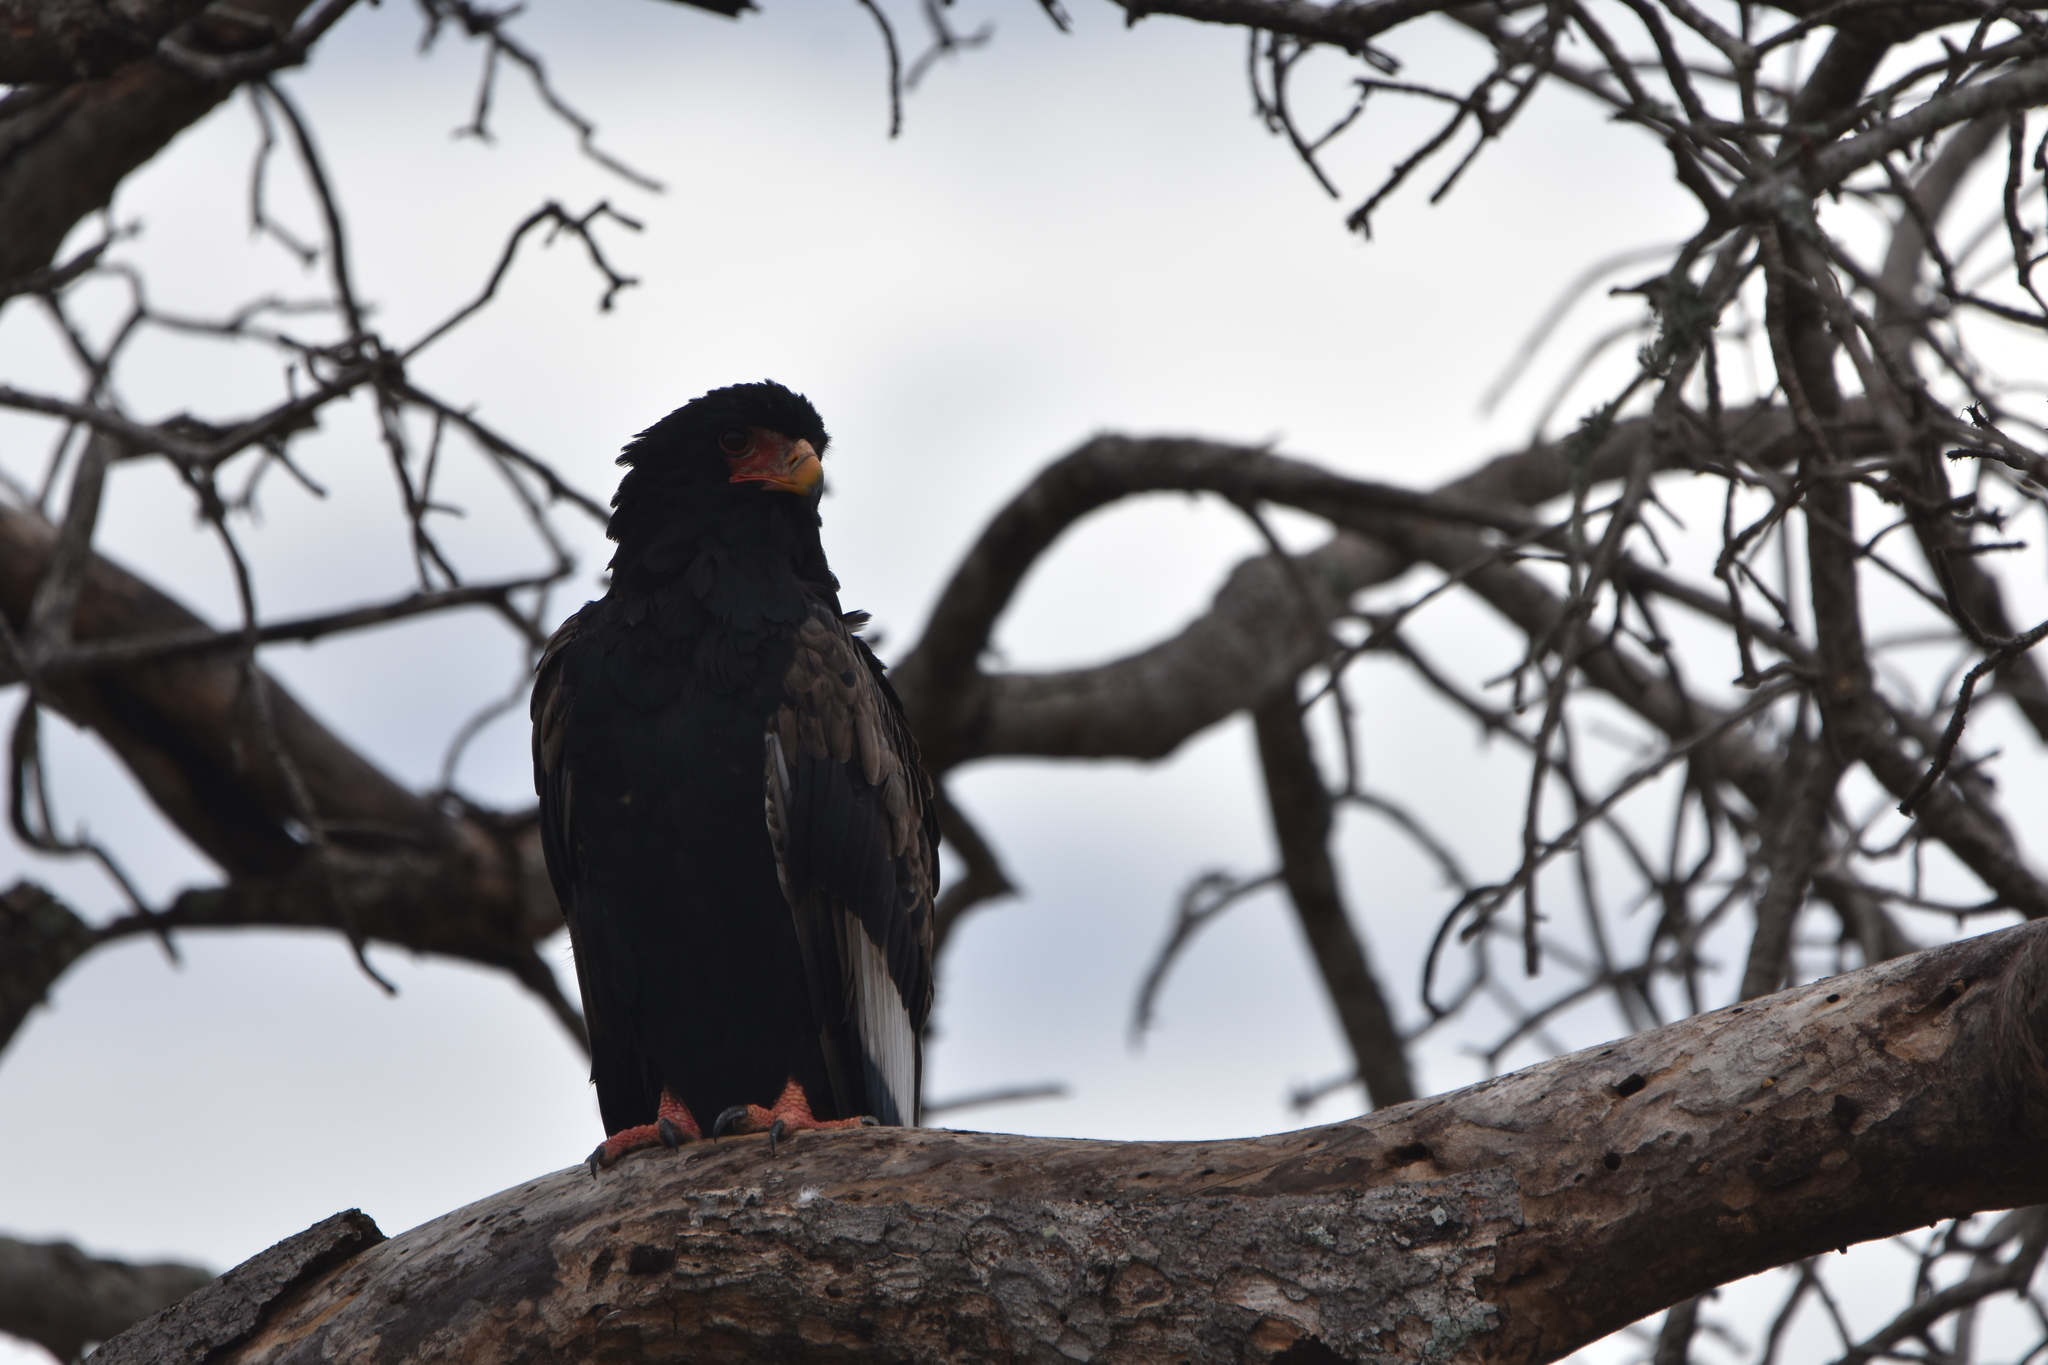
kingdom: Animalia
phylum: Chordata
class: Aves
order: Accipitriformes
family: Accipitridae
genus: Terathopius
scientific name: Terathopius ecaudatus
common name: Bateleur
